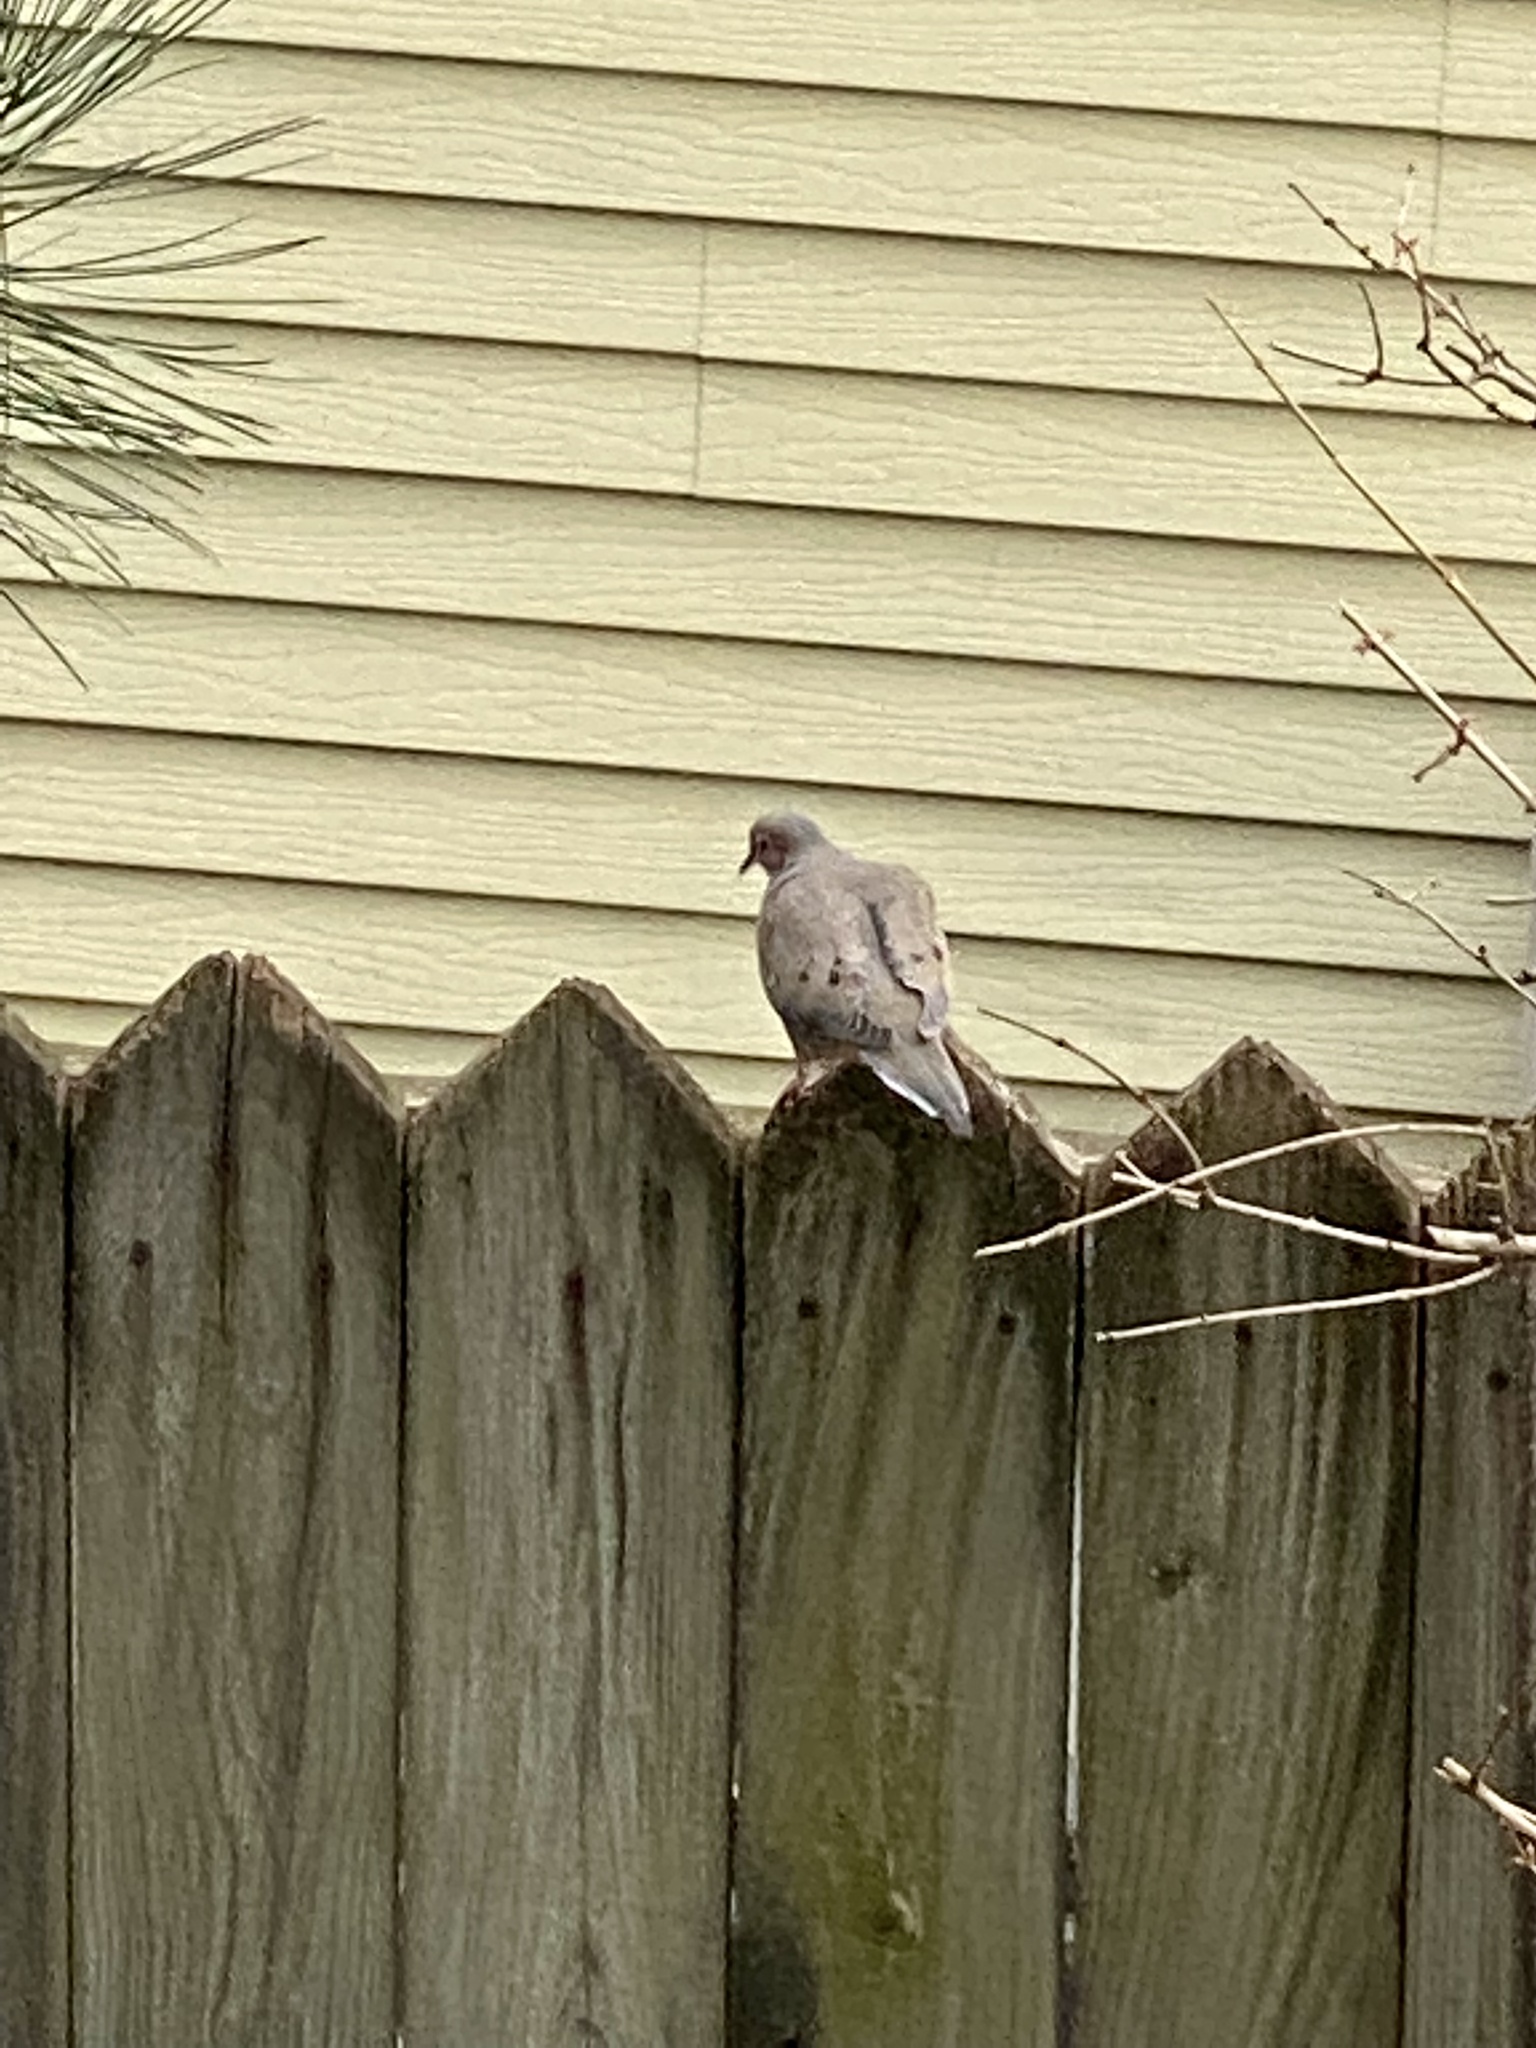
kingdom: Animalia
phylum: Chordata
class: Aves
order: Columbiformes
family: Columbidae
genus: Zenaida
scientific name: Zenaida macroura
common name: Mourning dove
